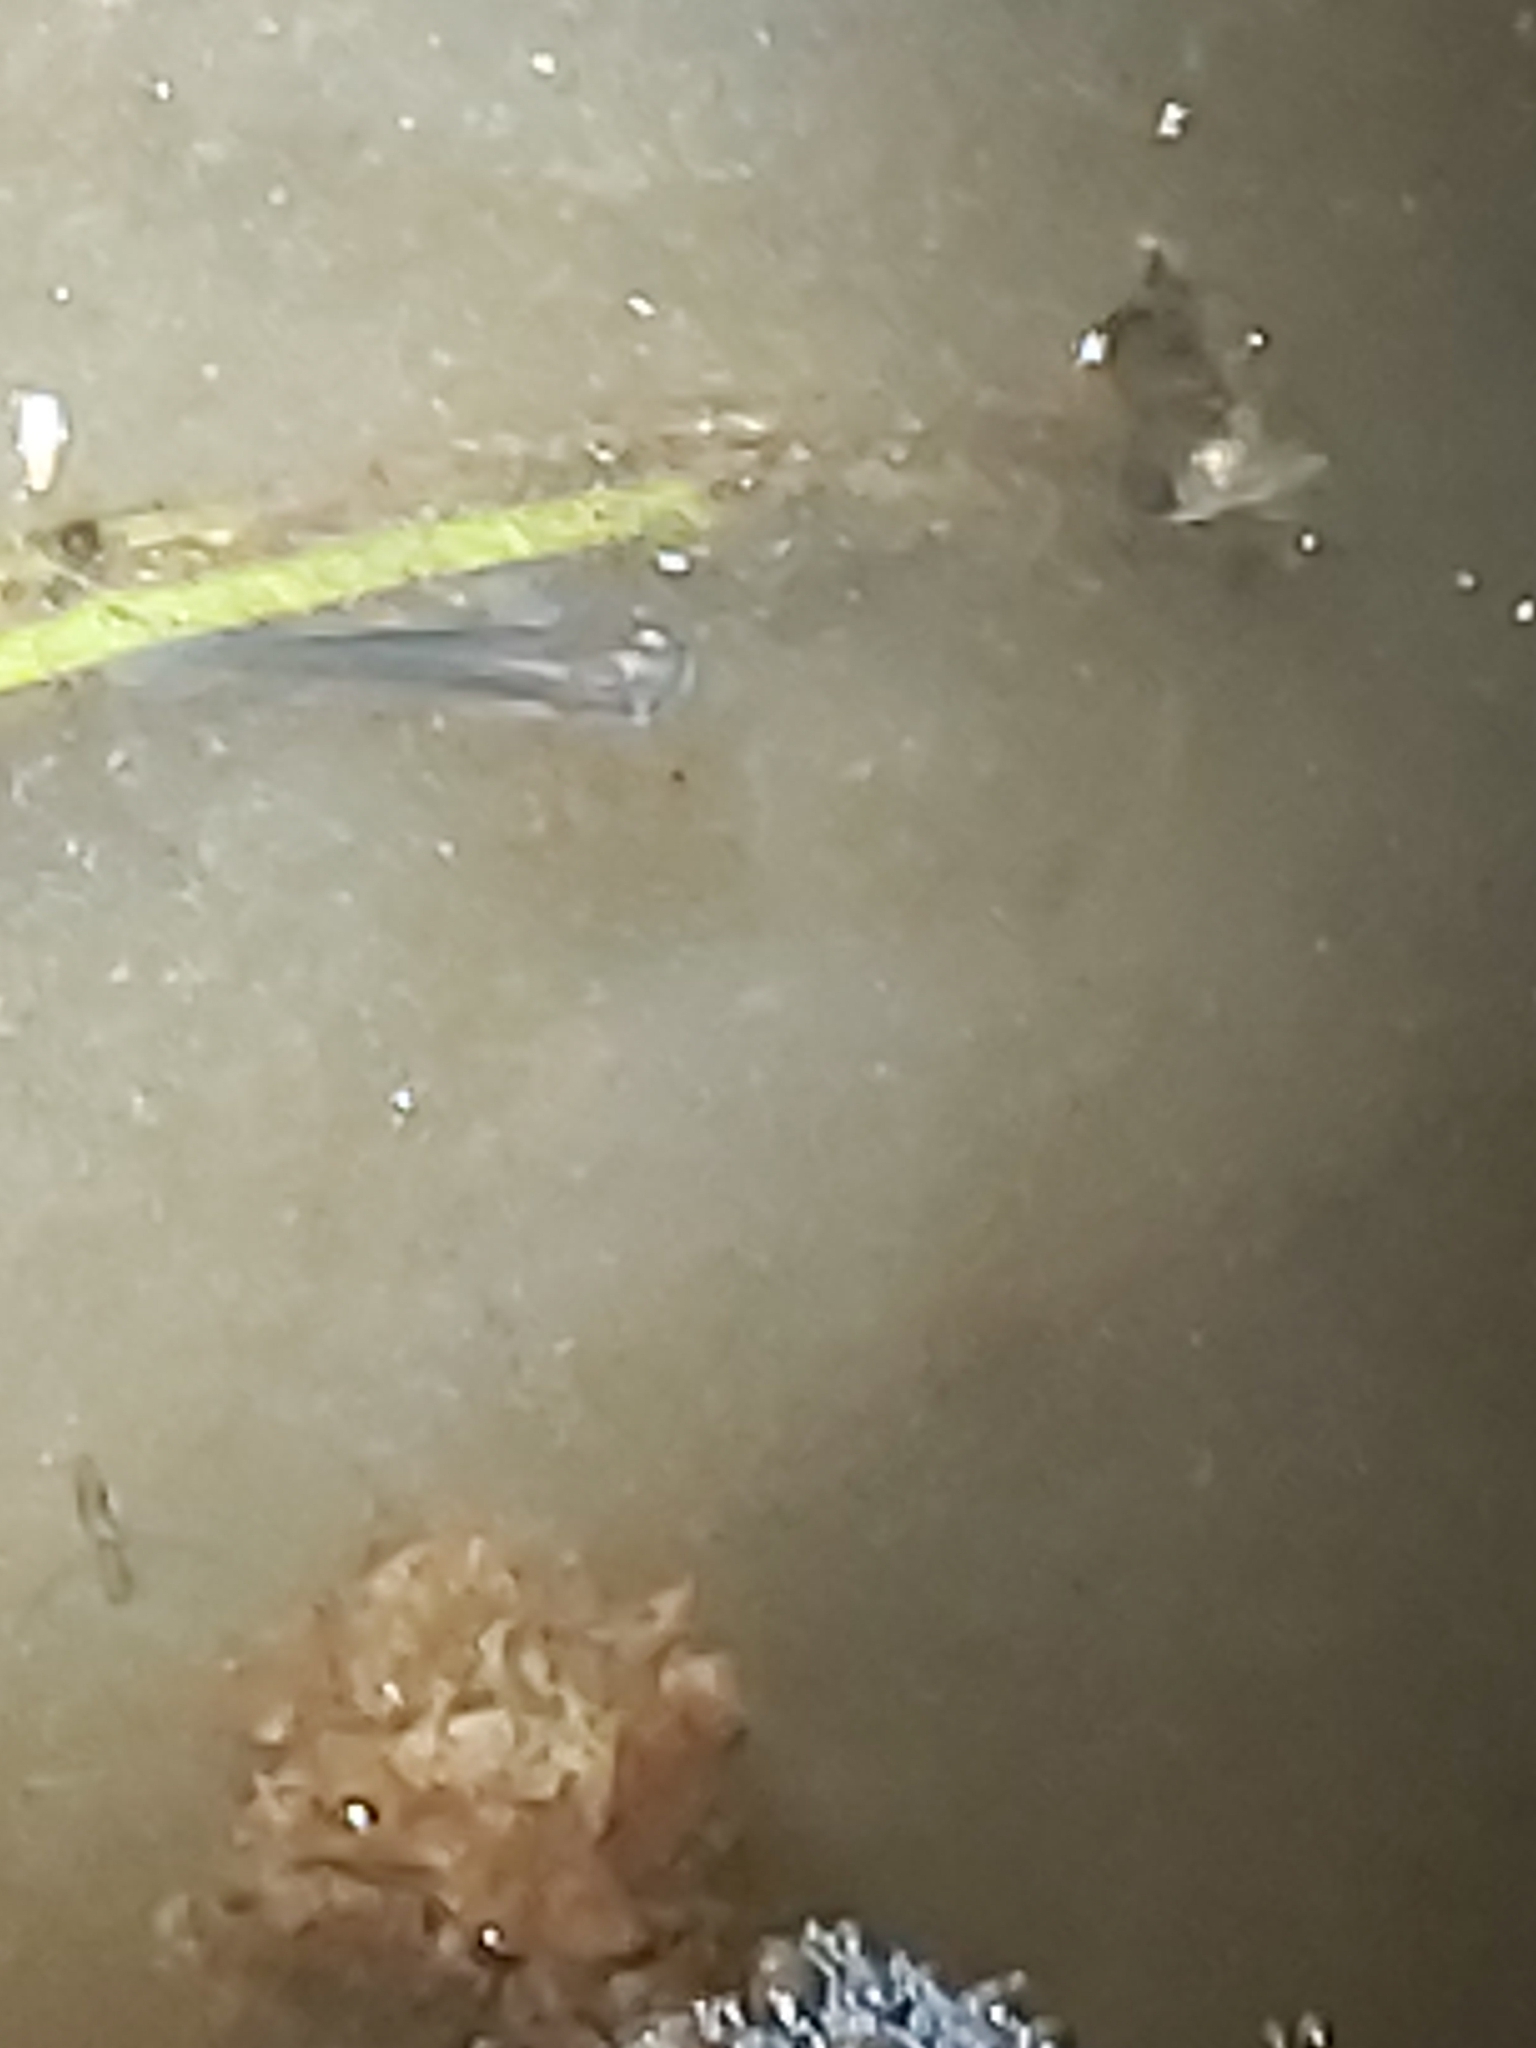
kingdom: Animalia
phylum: Chordata
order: Cyprinodontiformes
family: Poeciliidae
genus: Gambusia
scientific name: Gambusia holbrooki
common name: Eastern mosquitofish
